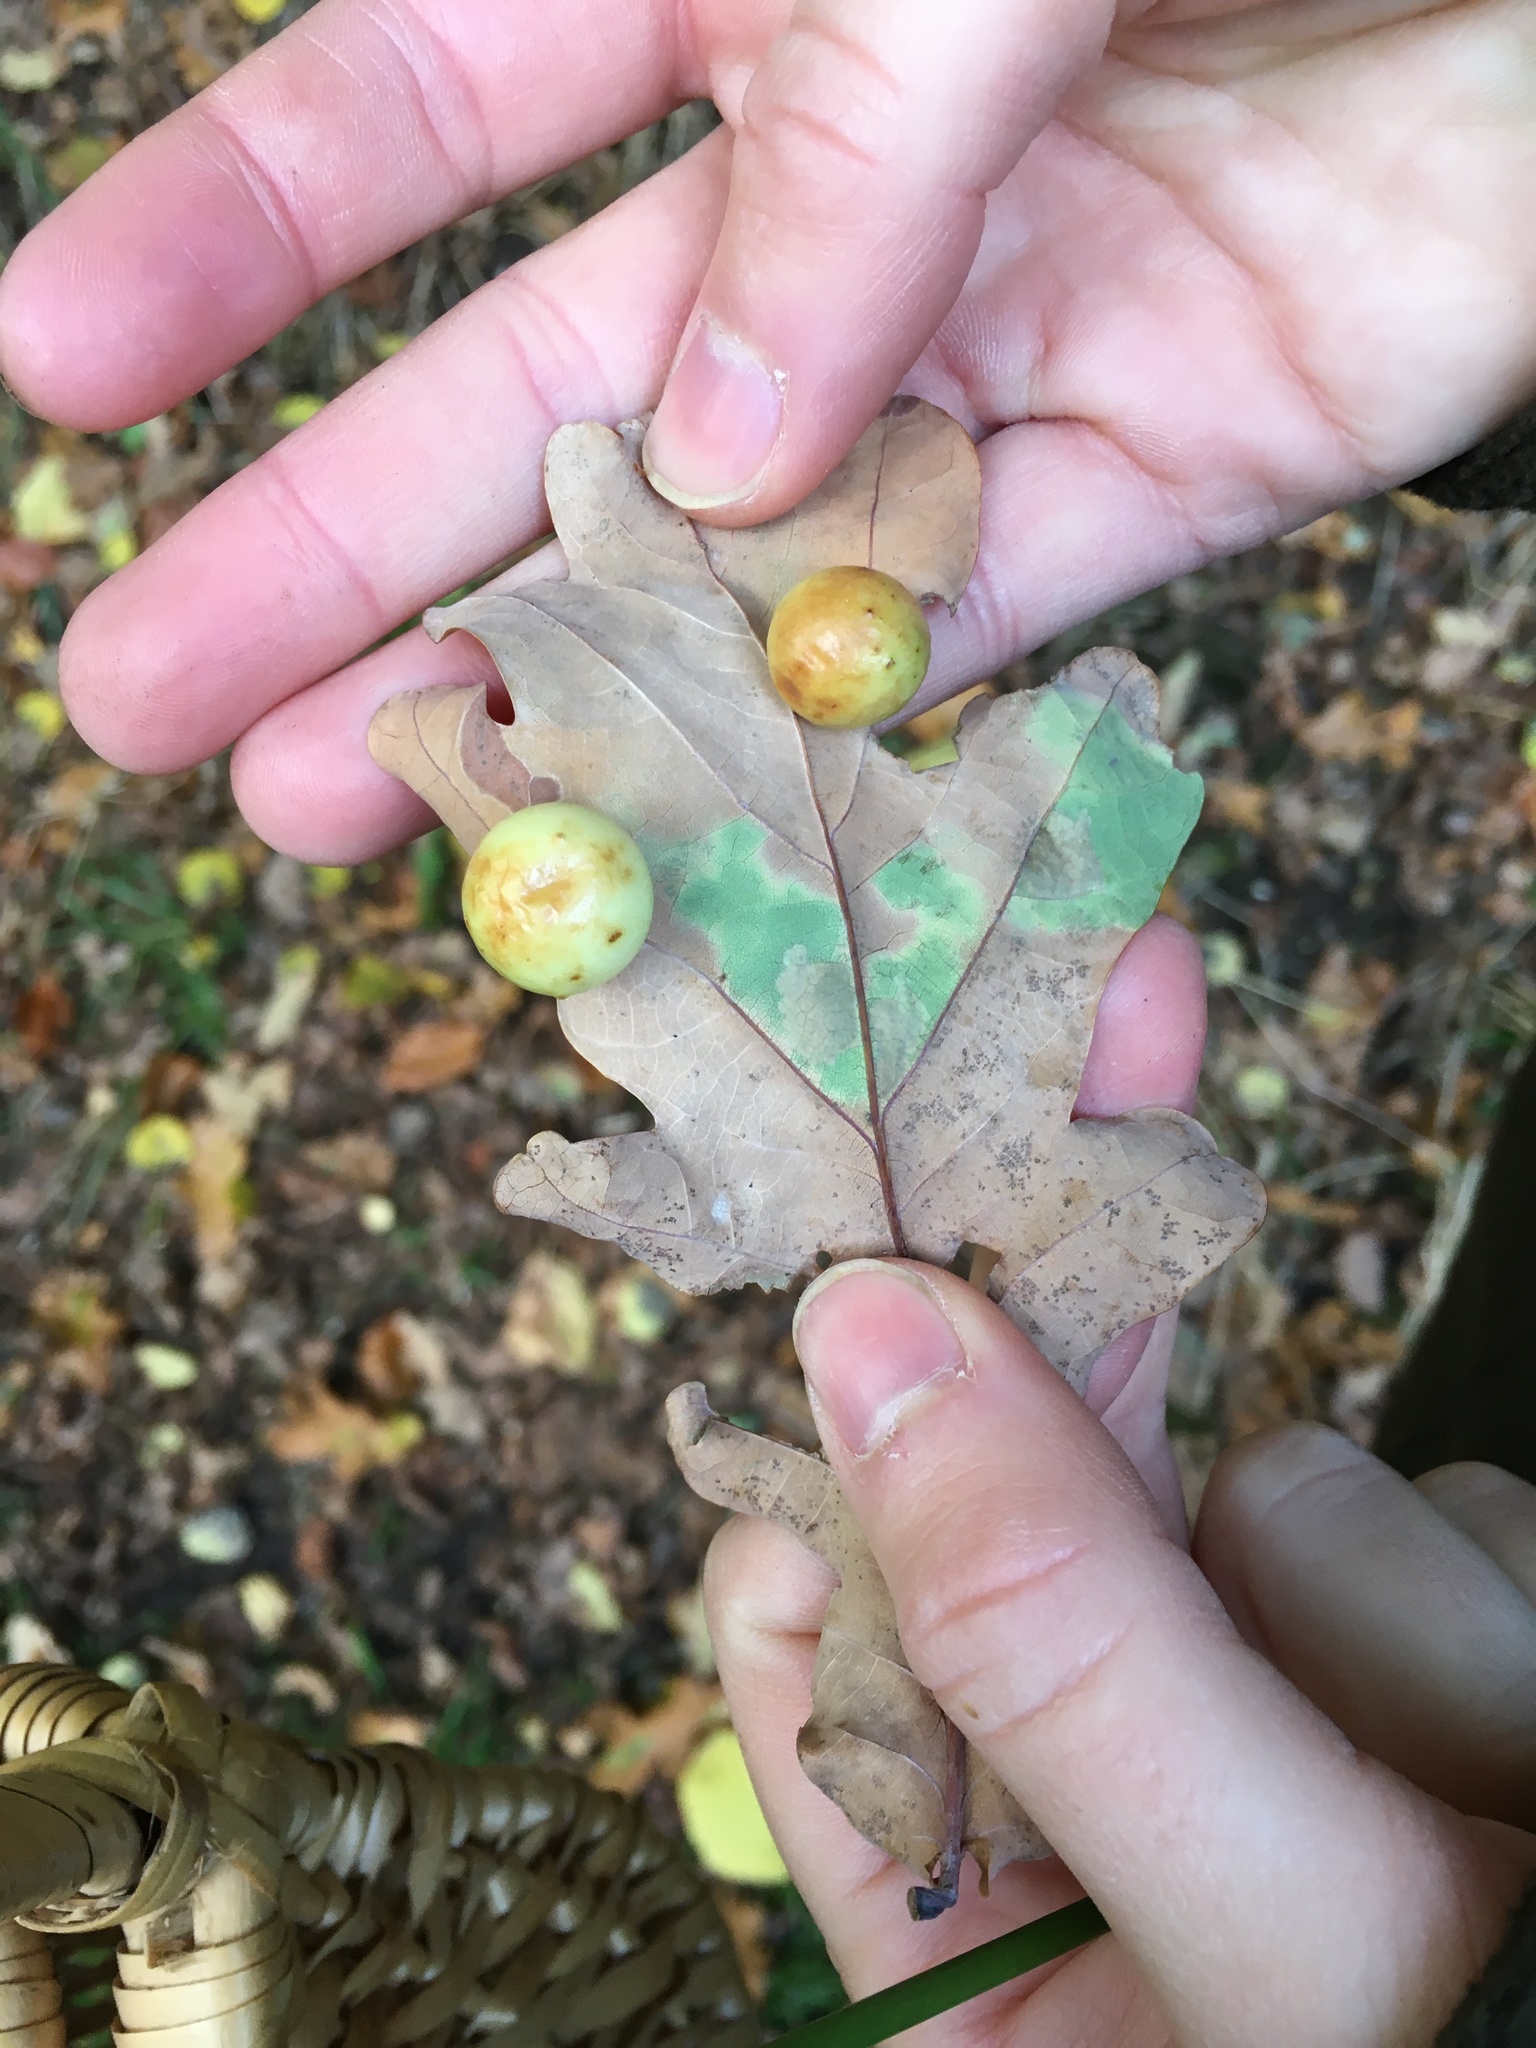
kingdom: Animalia
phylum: Arthropoda
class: Insecta
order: Hymenoptera
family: Cynipidae
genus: Cynips
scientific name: Cynips quercusfolii
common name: Cherry gall
